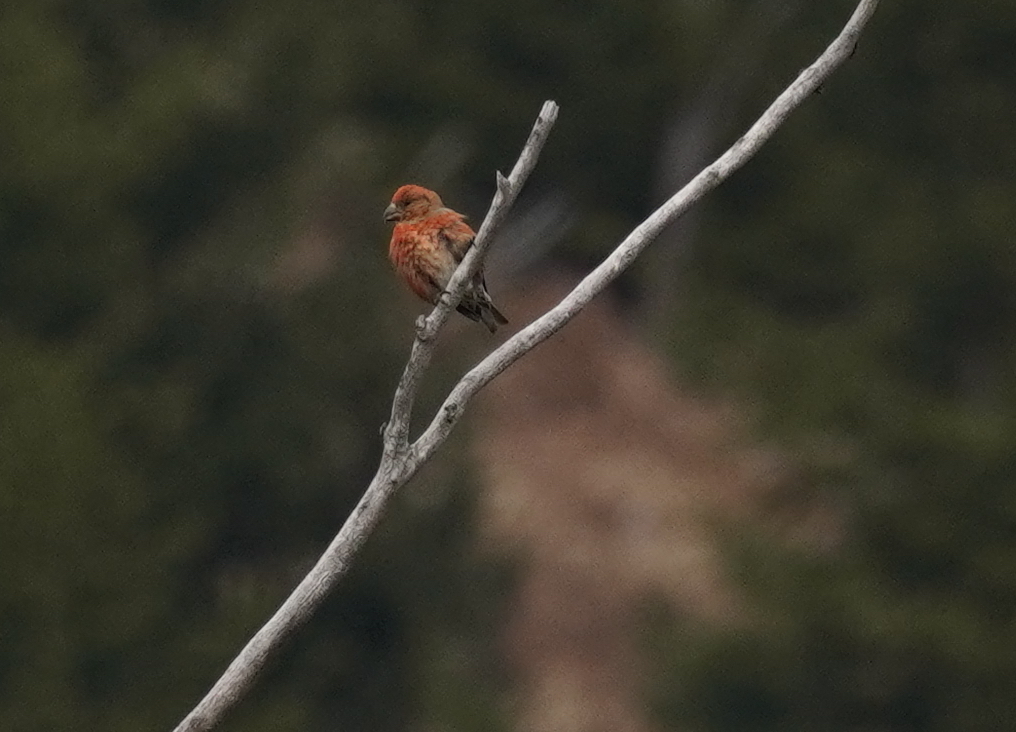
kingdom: Animalia
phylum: Chordata
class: Aves
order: Passeriformes
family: Fringillidae
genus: Loxia
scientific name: Loxia curvirostra
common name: Red crossbill
